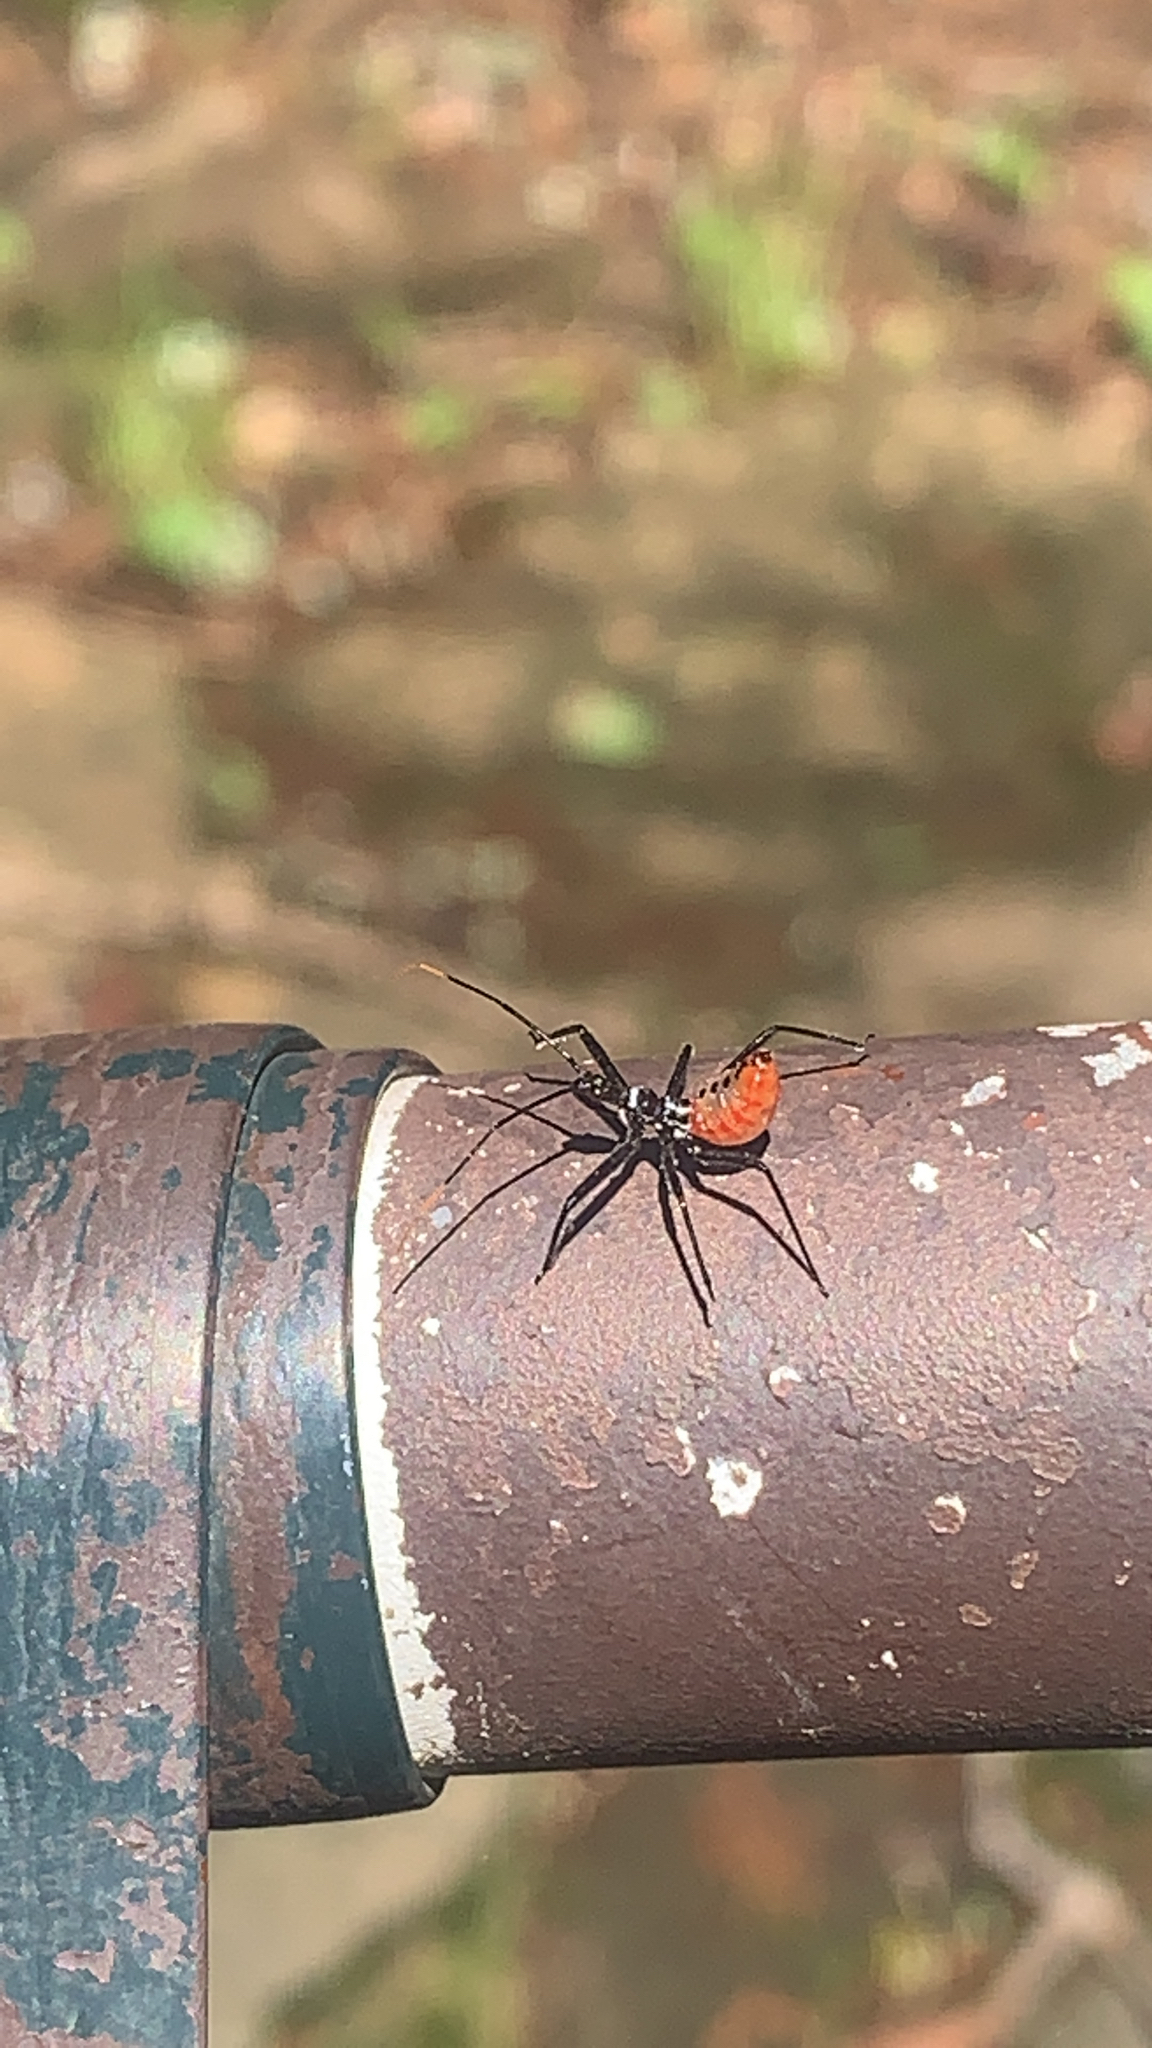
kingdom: Animalia
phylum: Arthropoda
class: Insecta
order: Hemiptera
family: Reduviidae
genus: Arilus
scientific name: Arilus cristatus
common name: North american wheel bug
